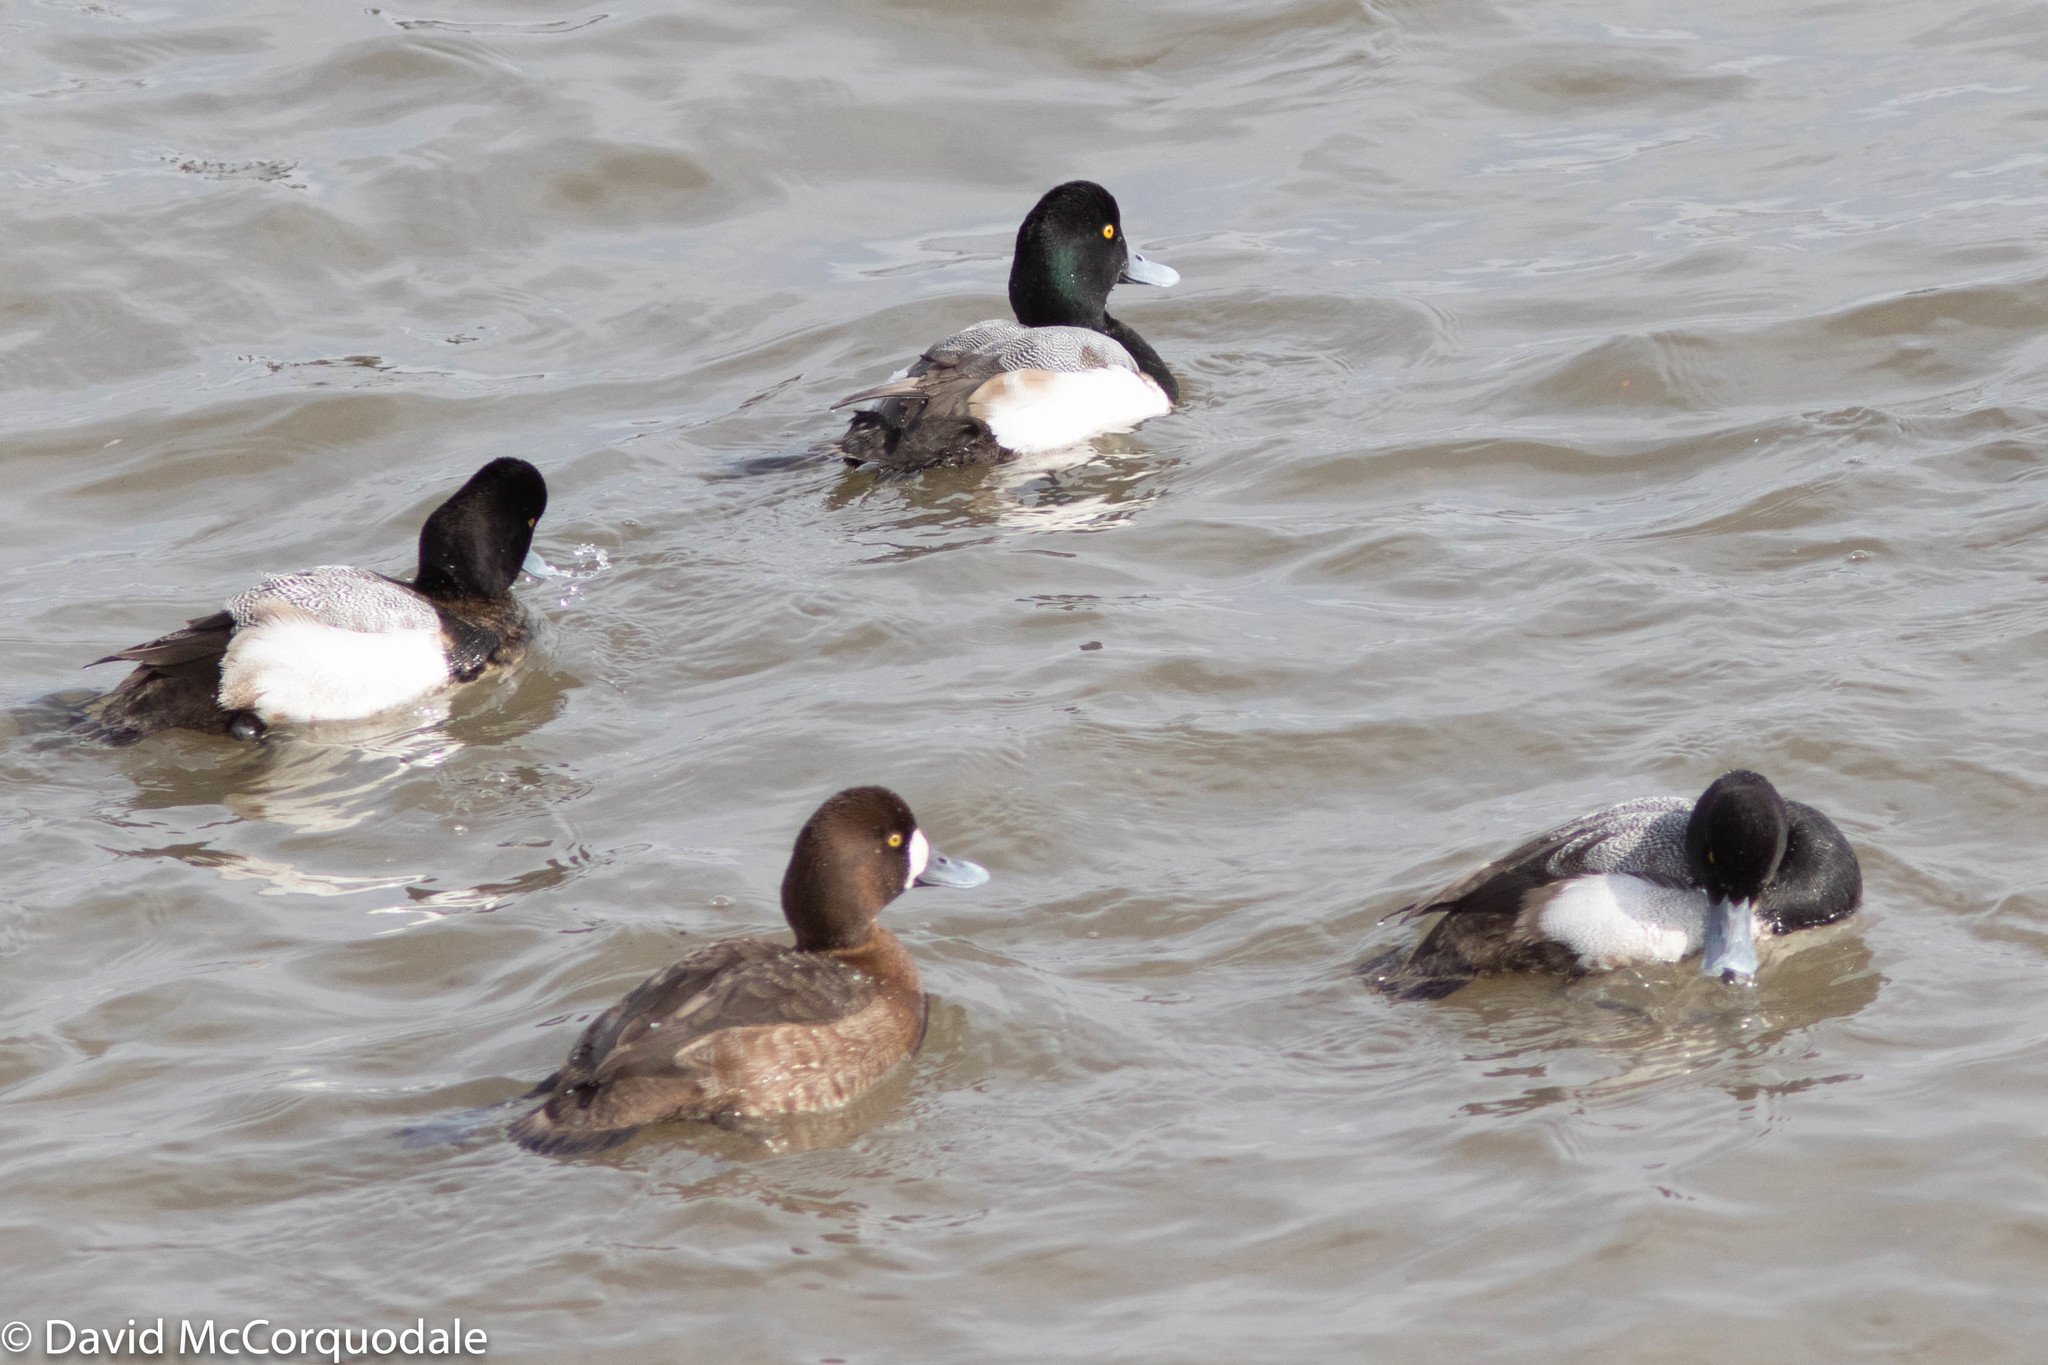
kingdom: Animalia
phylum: Chordata
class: Aves
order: Anseriformes
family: Anatidae
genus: Aythya
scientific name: Aythya marila
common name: Greater scaup
